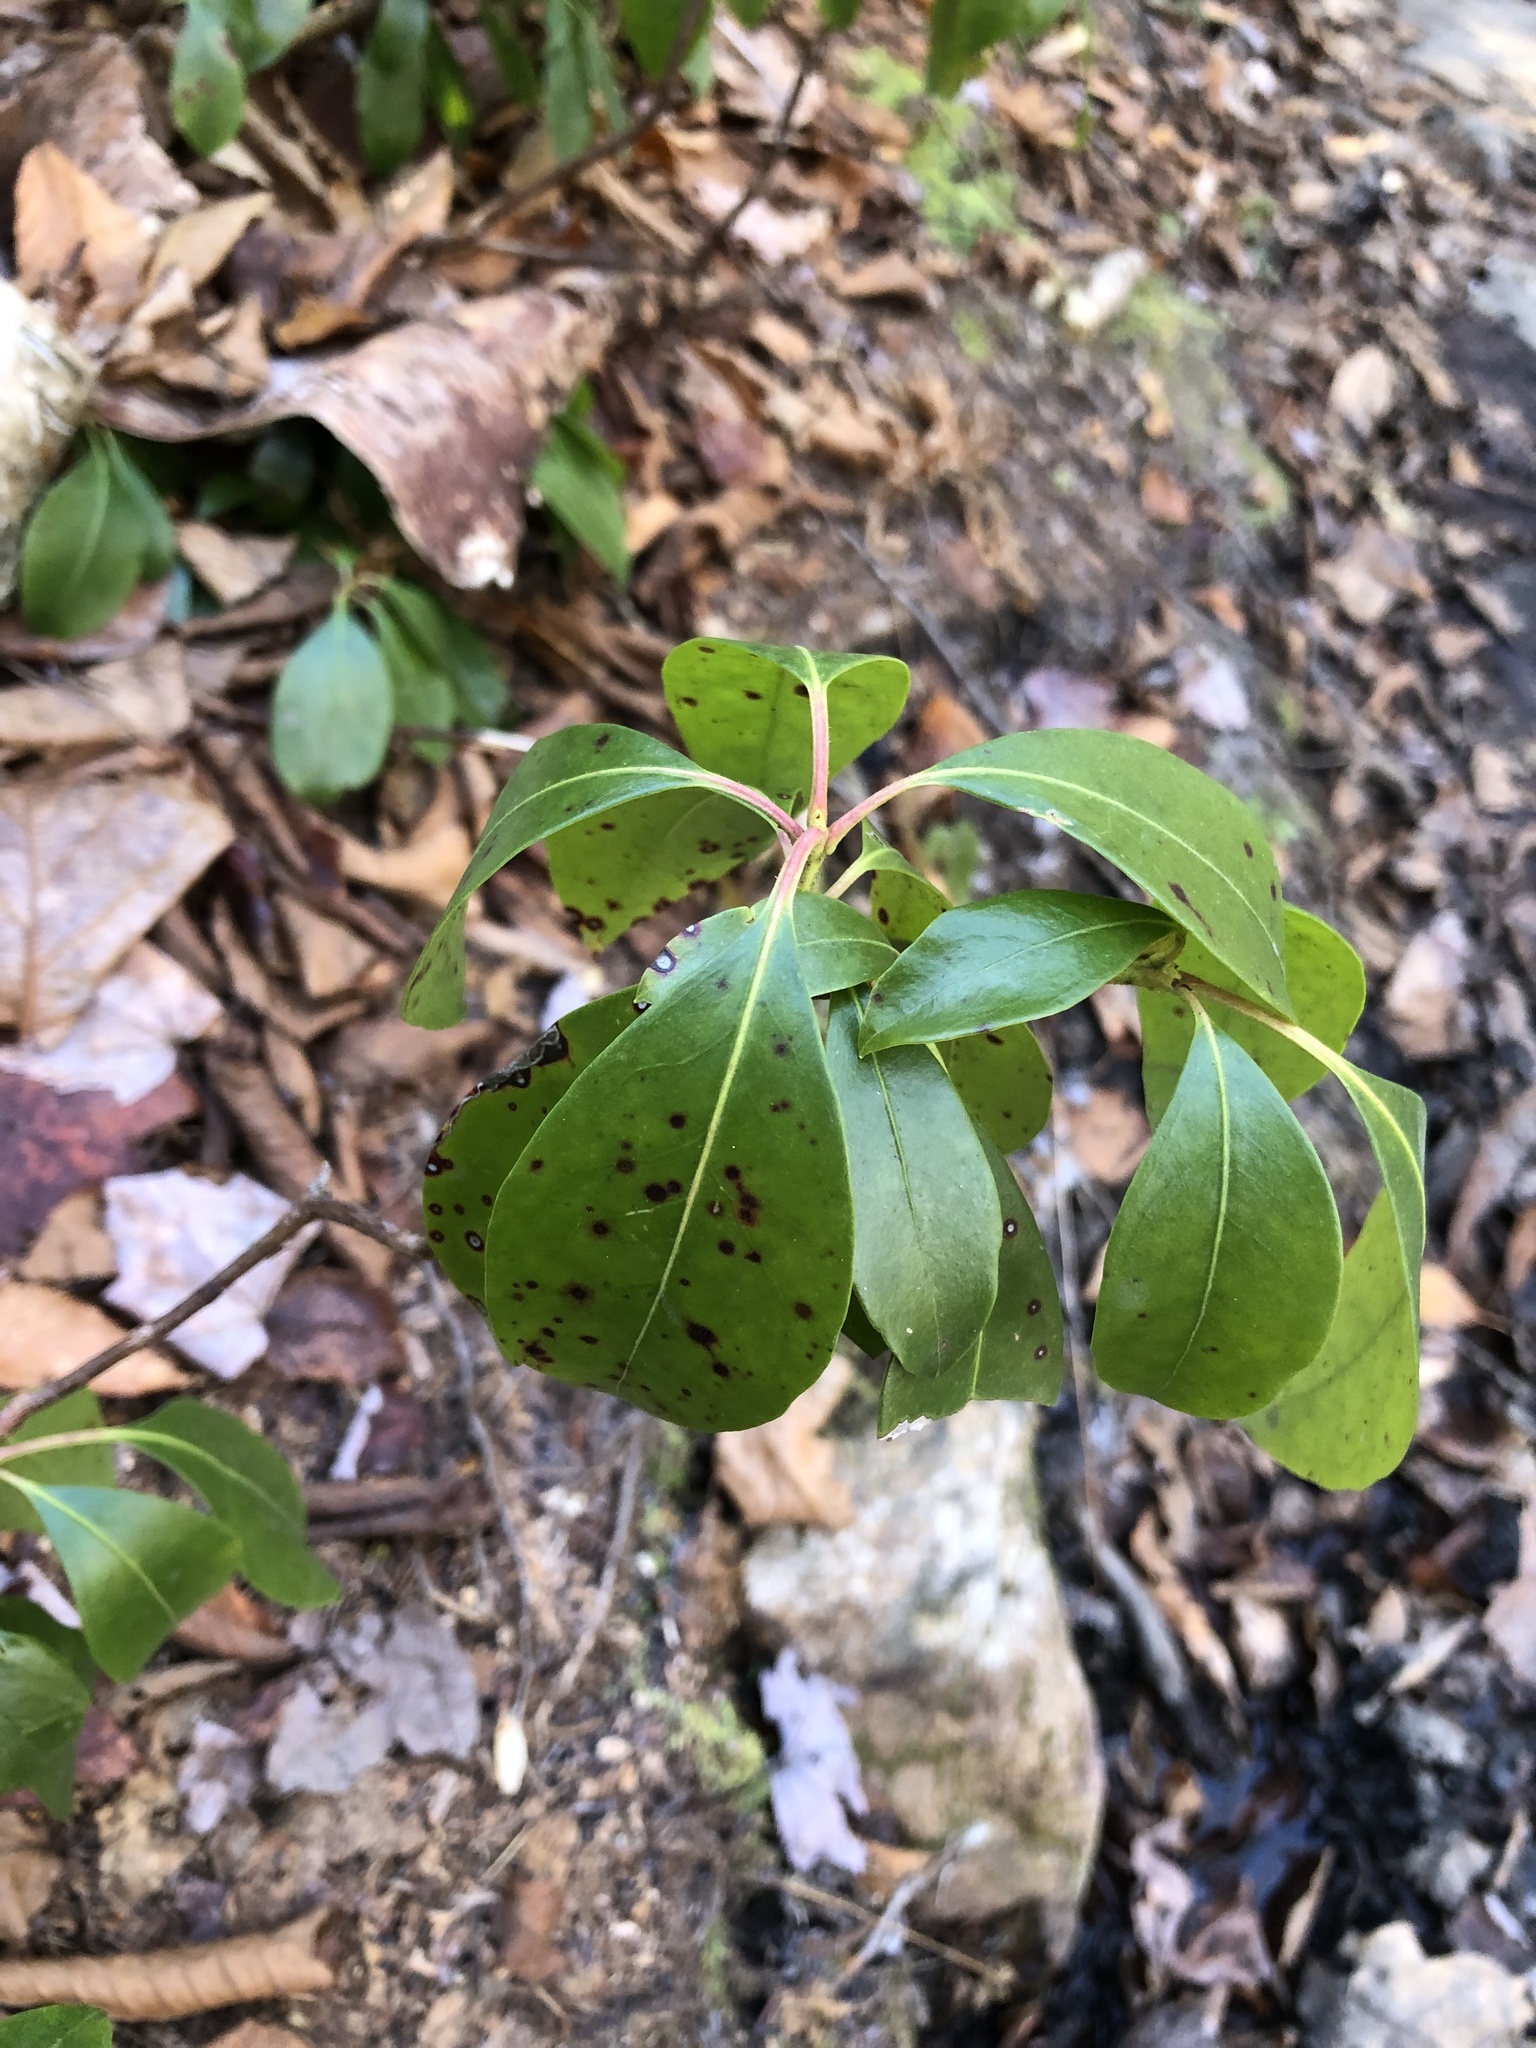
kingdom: Plantae
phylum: Tracheophyta
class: Magnoliopsida
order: Ericales
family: Ericaceae
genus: Kalmia
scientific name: Kalmia latifolia
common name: Mountain-laurel
